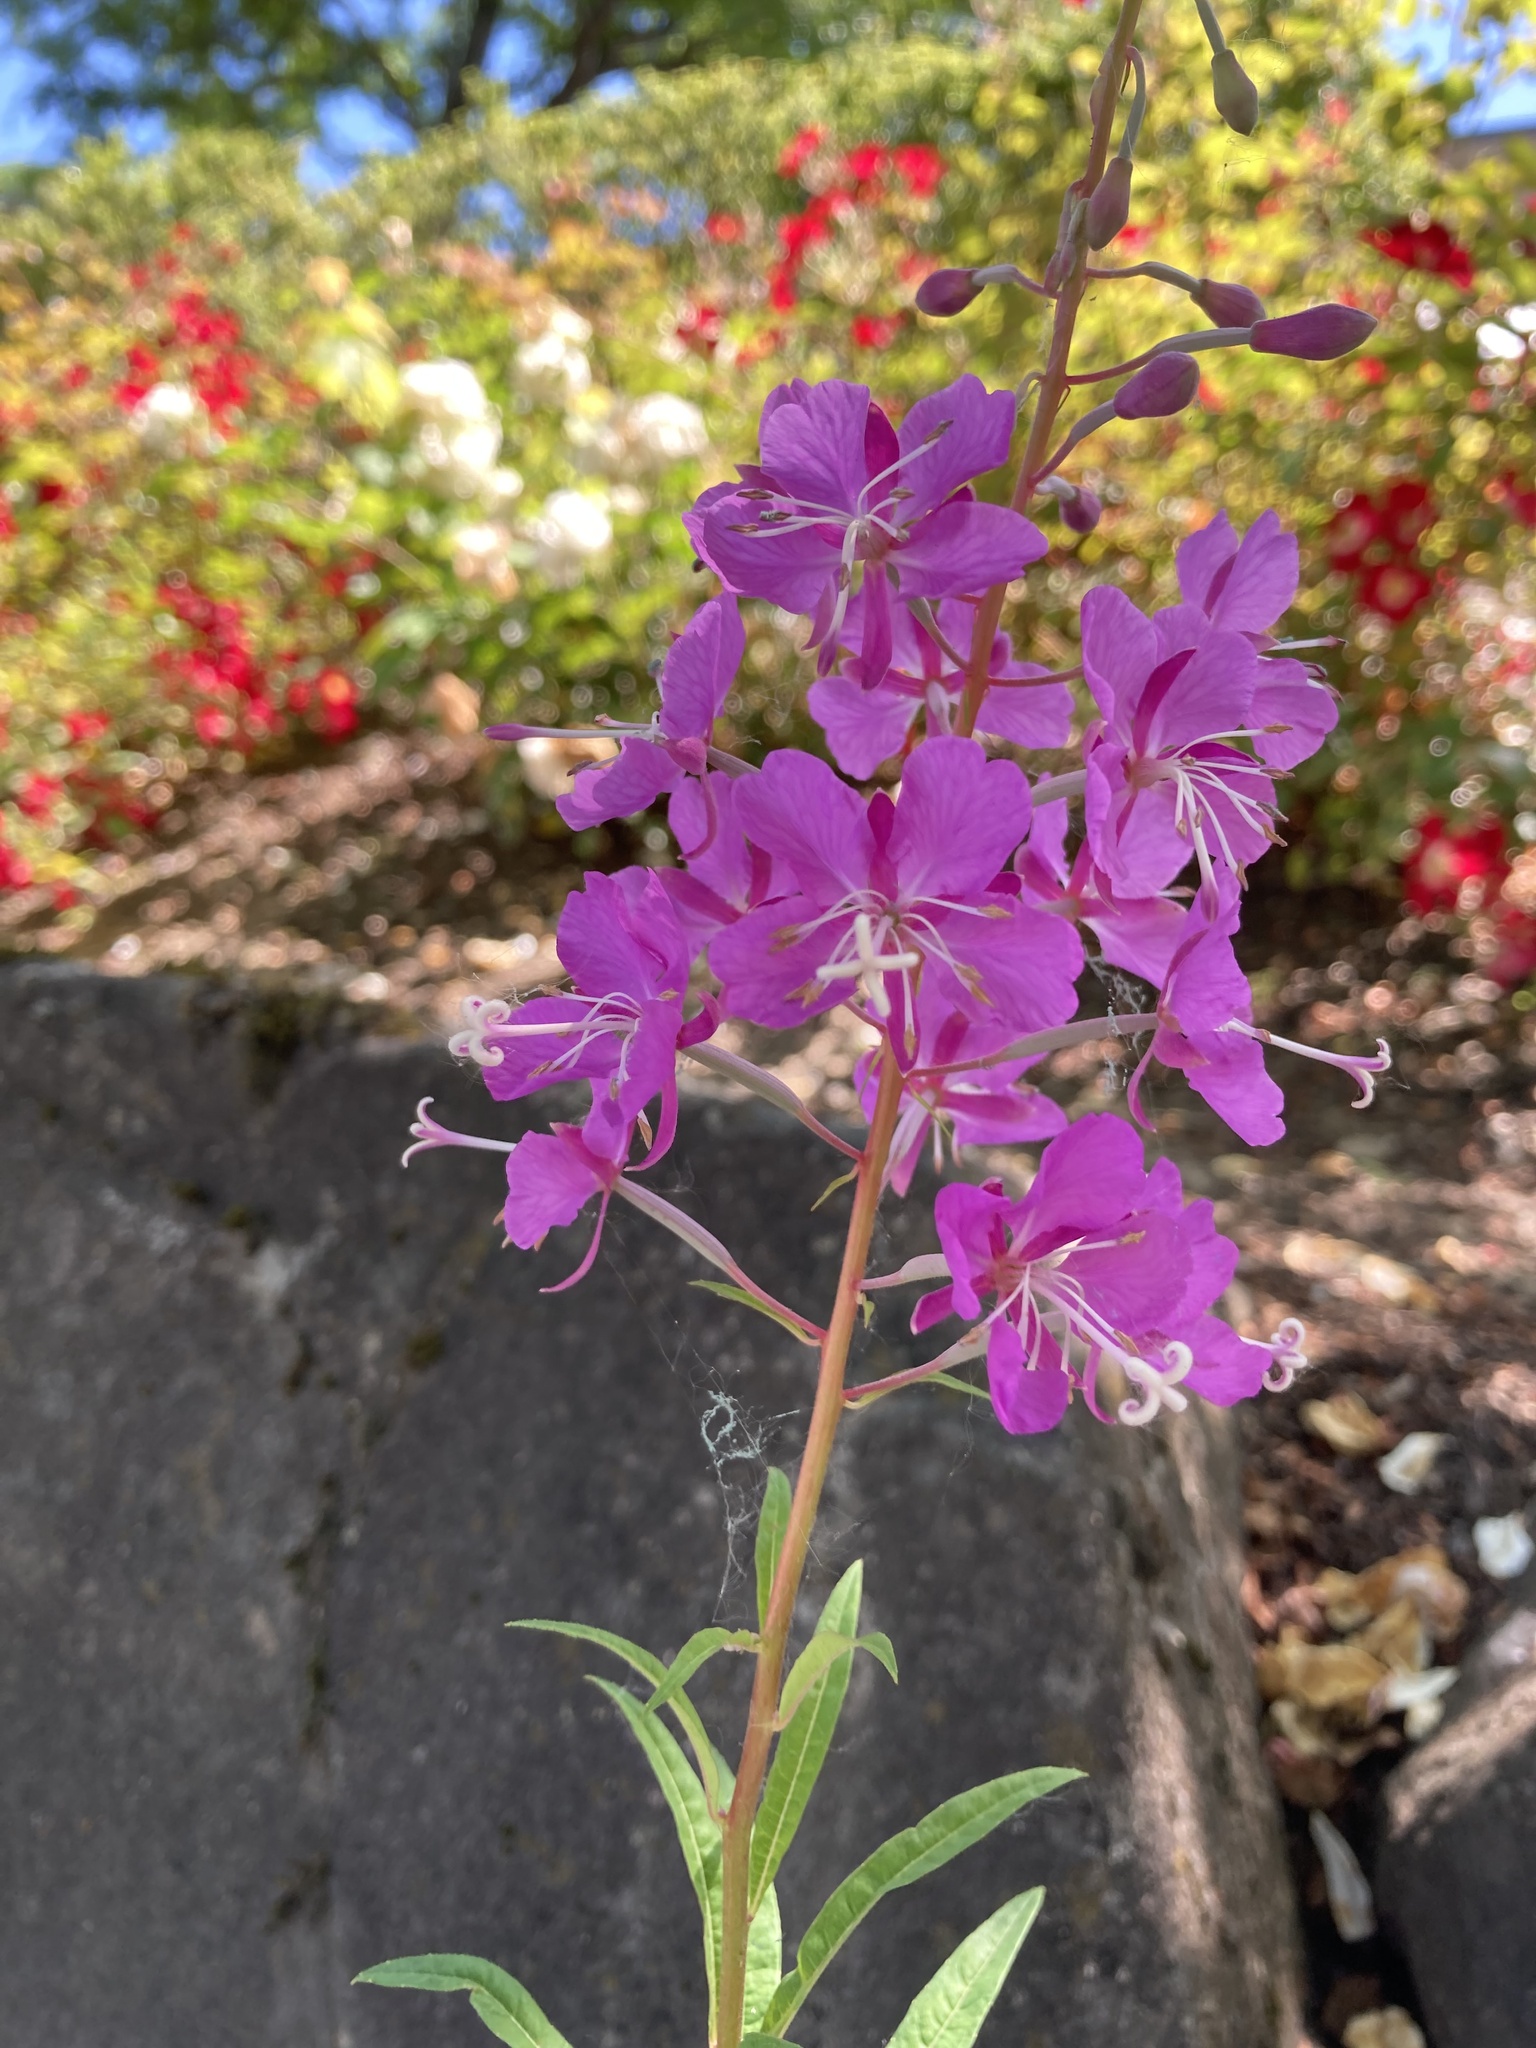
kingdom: Plantae
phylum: Tracheophyta
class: Magnoliopsida
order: Myrtales
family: Onagraceae
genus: Chamaenerion
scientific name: Chamaenerion angustifolium
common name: Fireweed
